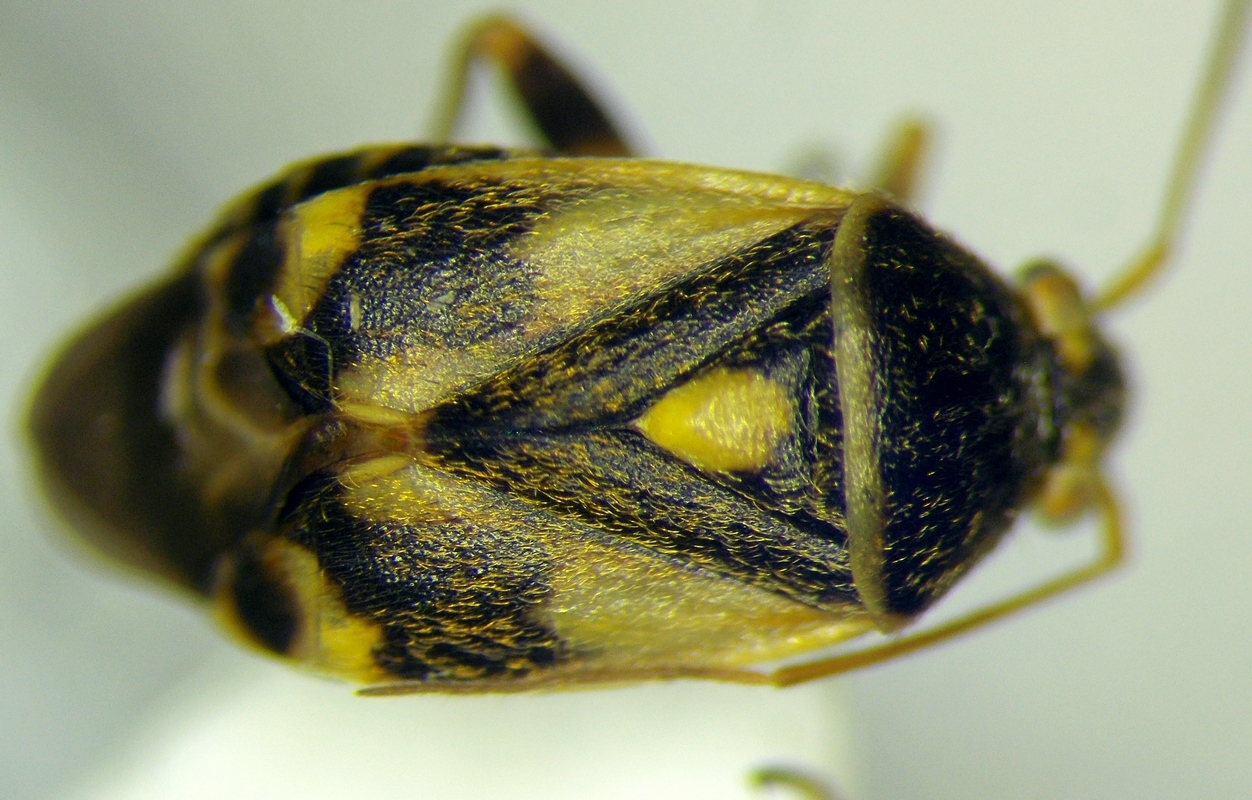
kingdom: Animalia
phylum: Arthropoda
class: Insecta
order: Hemiptera
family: Miridae
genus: Polymerus
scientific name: Polymerus brevicornis
